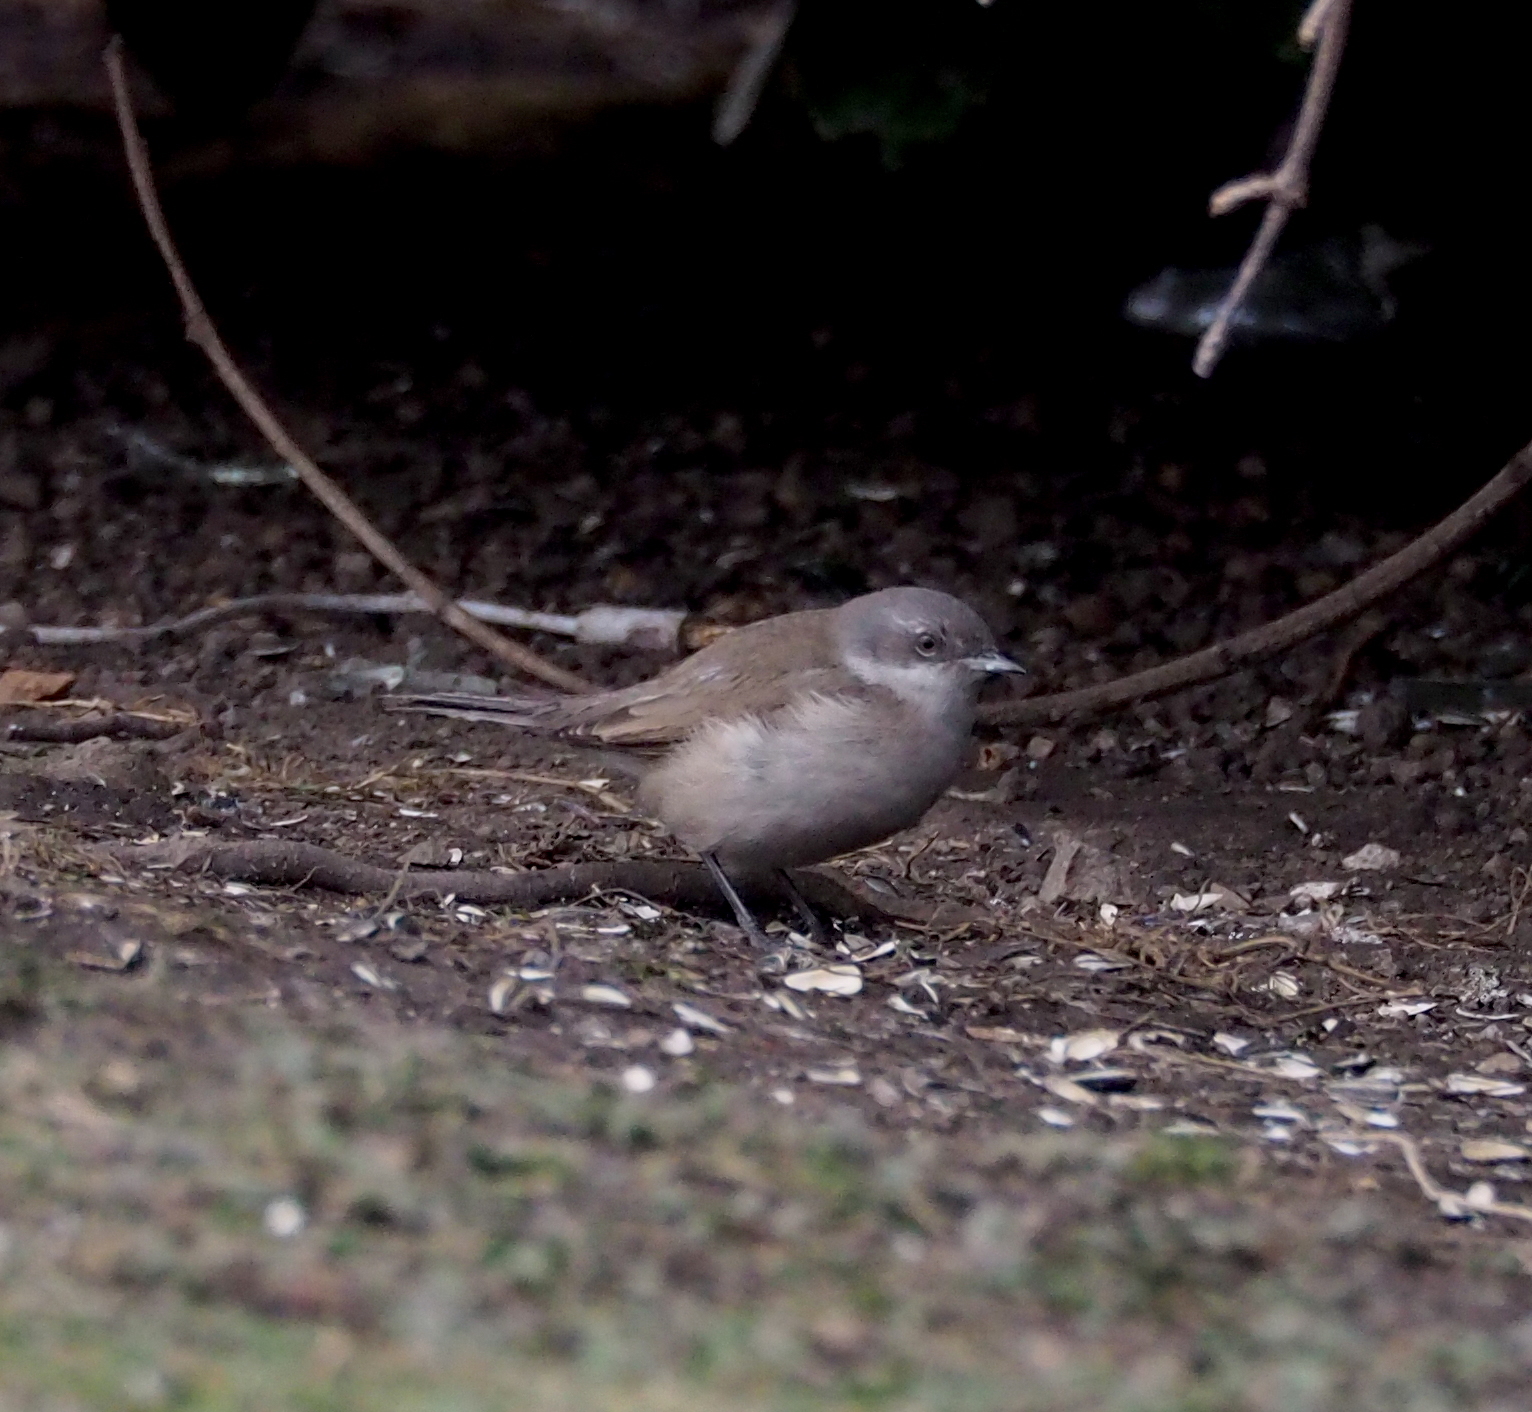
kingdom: Animalia
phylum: Chordata
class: Aves
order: Passeriformes
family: Sylviidae
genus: Sylvia
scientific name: Sylvia curruca
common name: Lesser whitethroat
